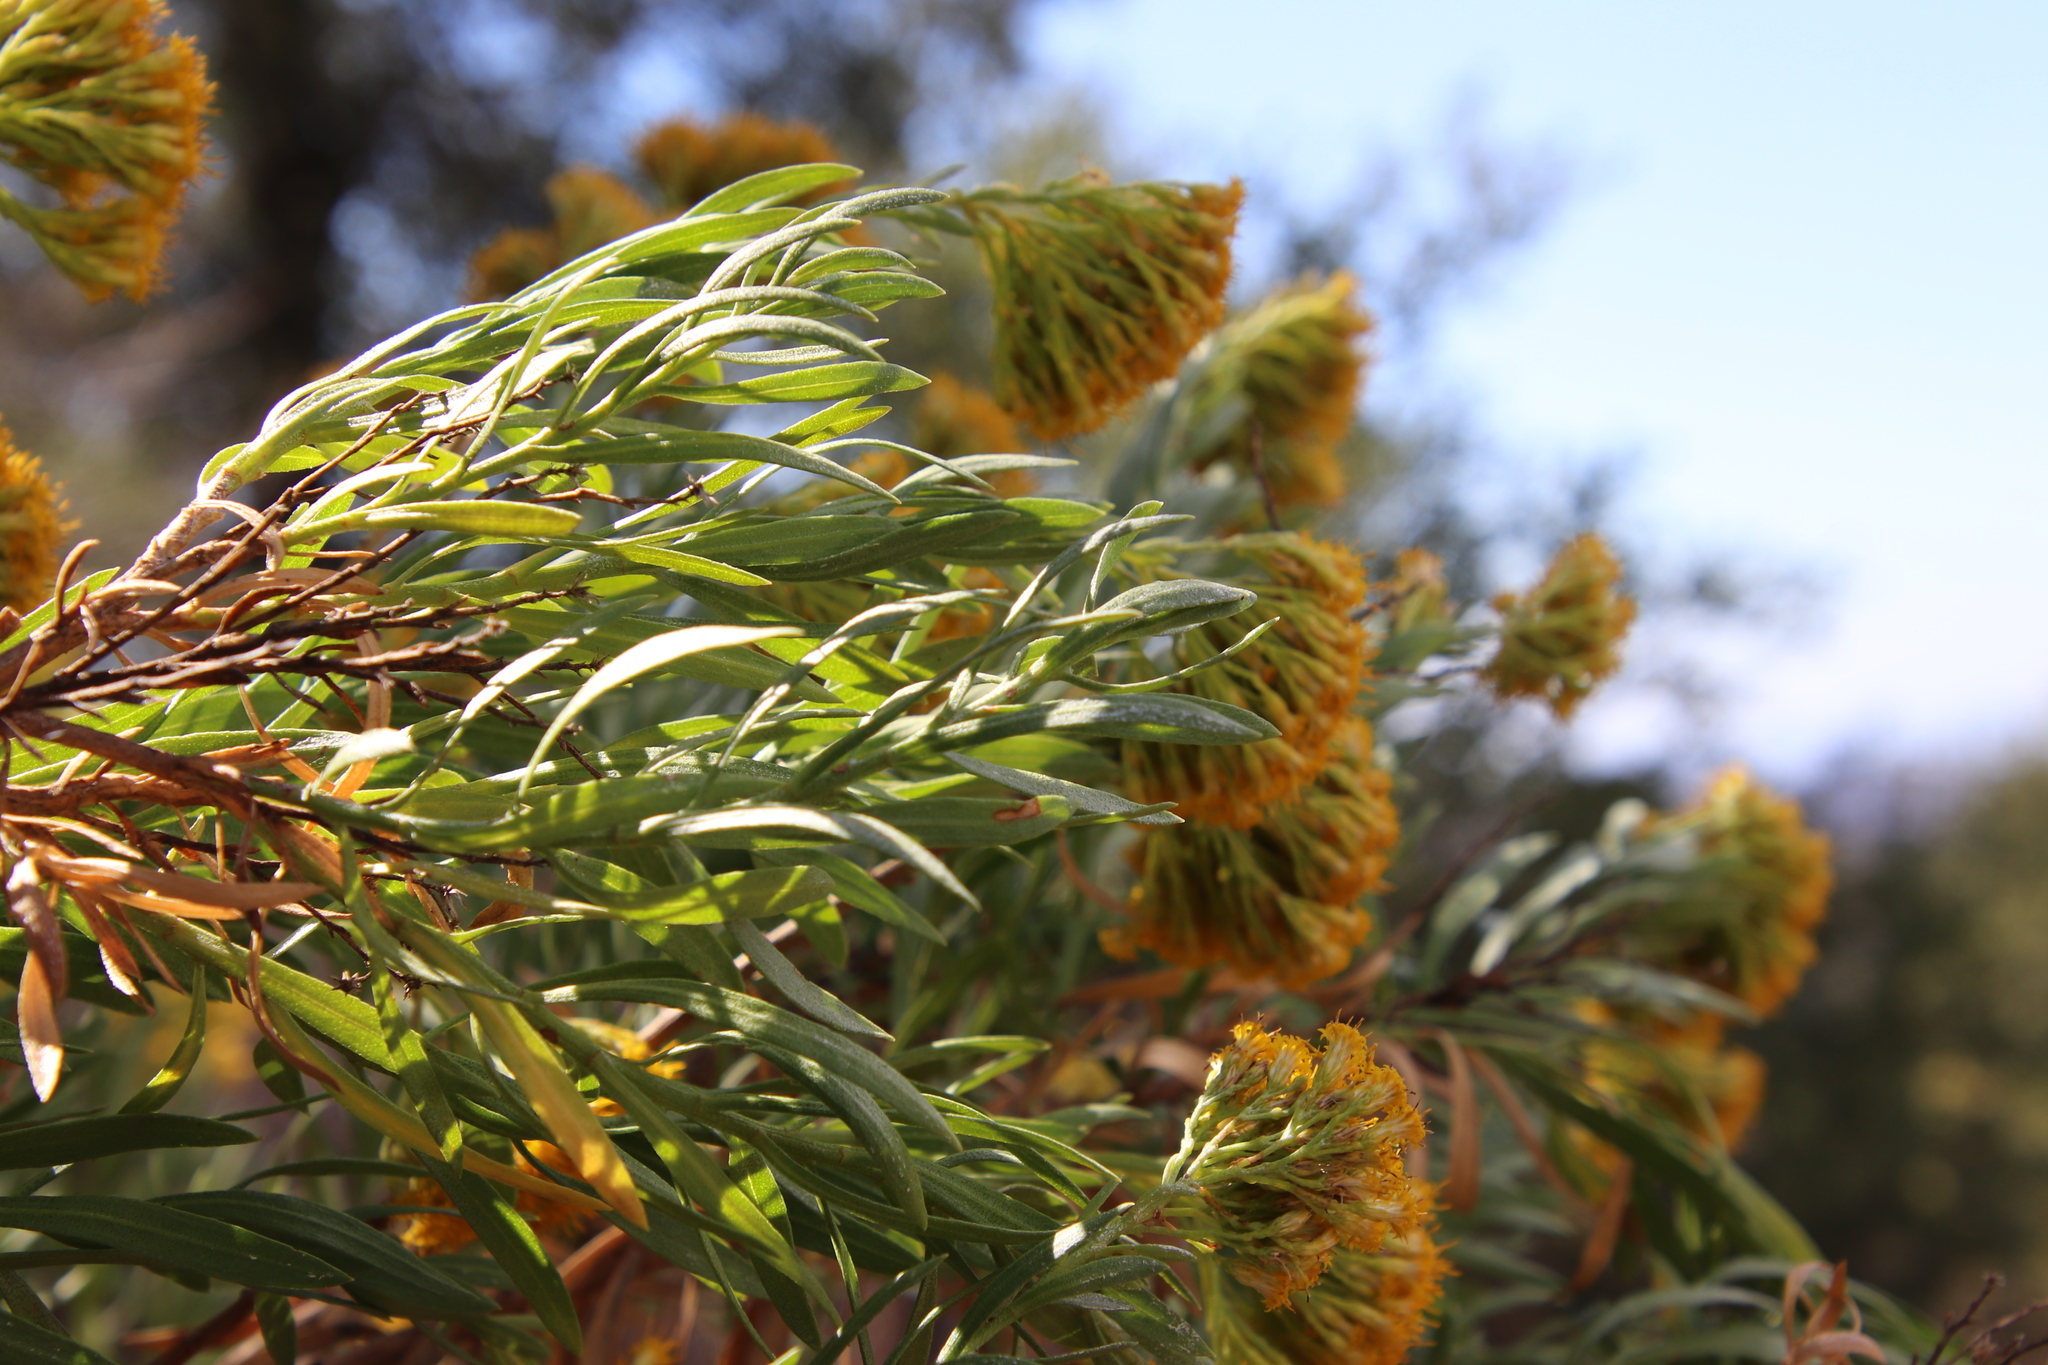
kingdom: Plantae
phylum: Tracheophyta
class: Magnoliopsida
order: Asterales
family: Asteraceae
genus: Ericameria
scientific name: Ericameria parishii
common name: Parish's goldenbush
